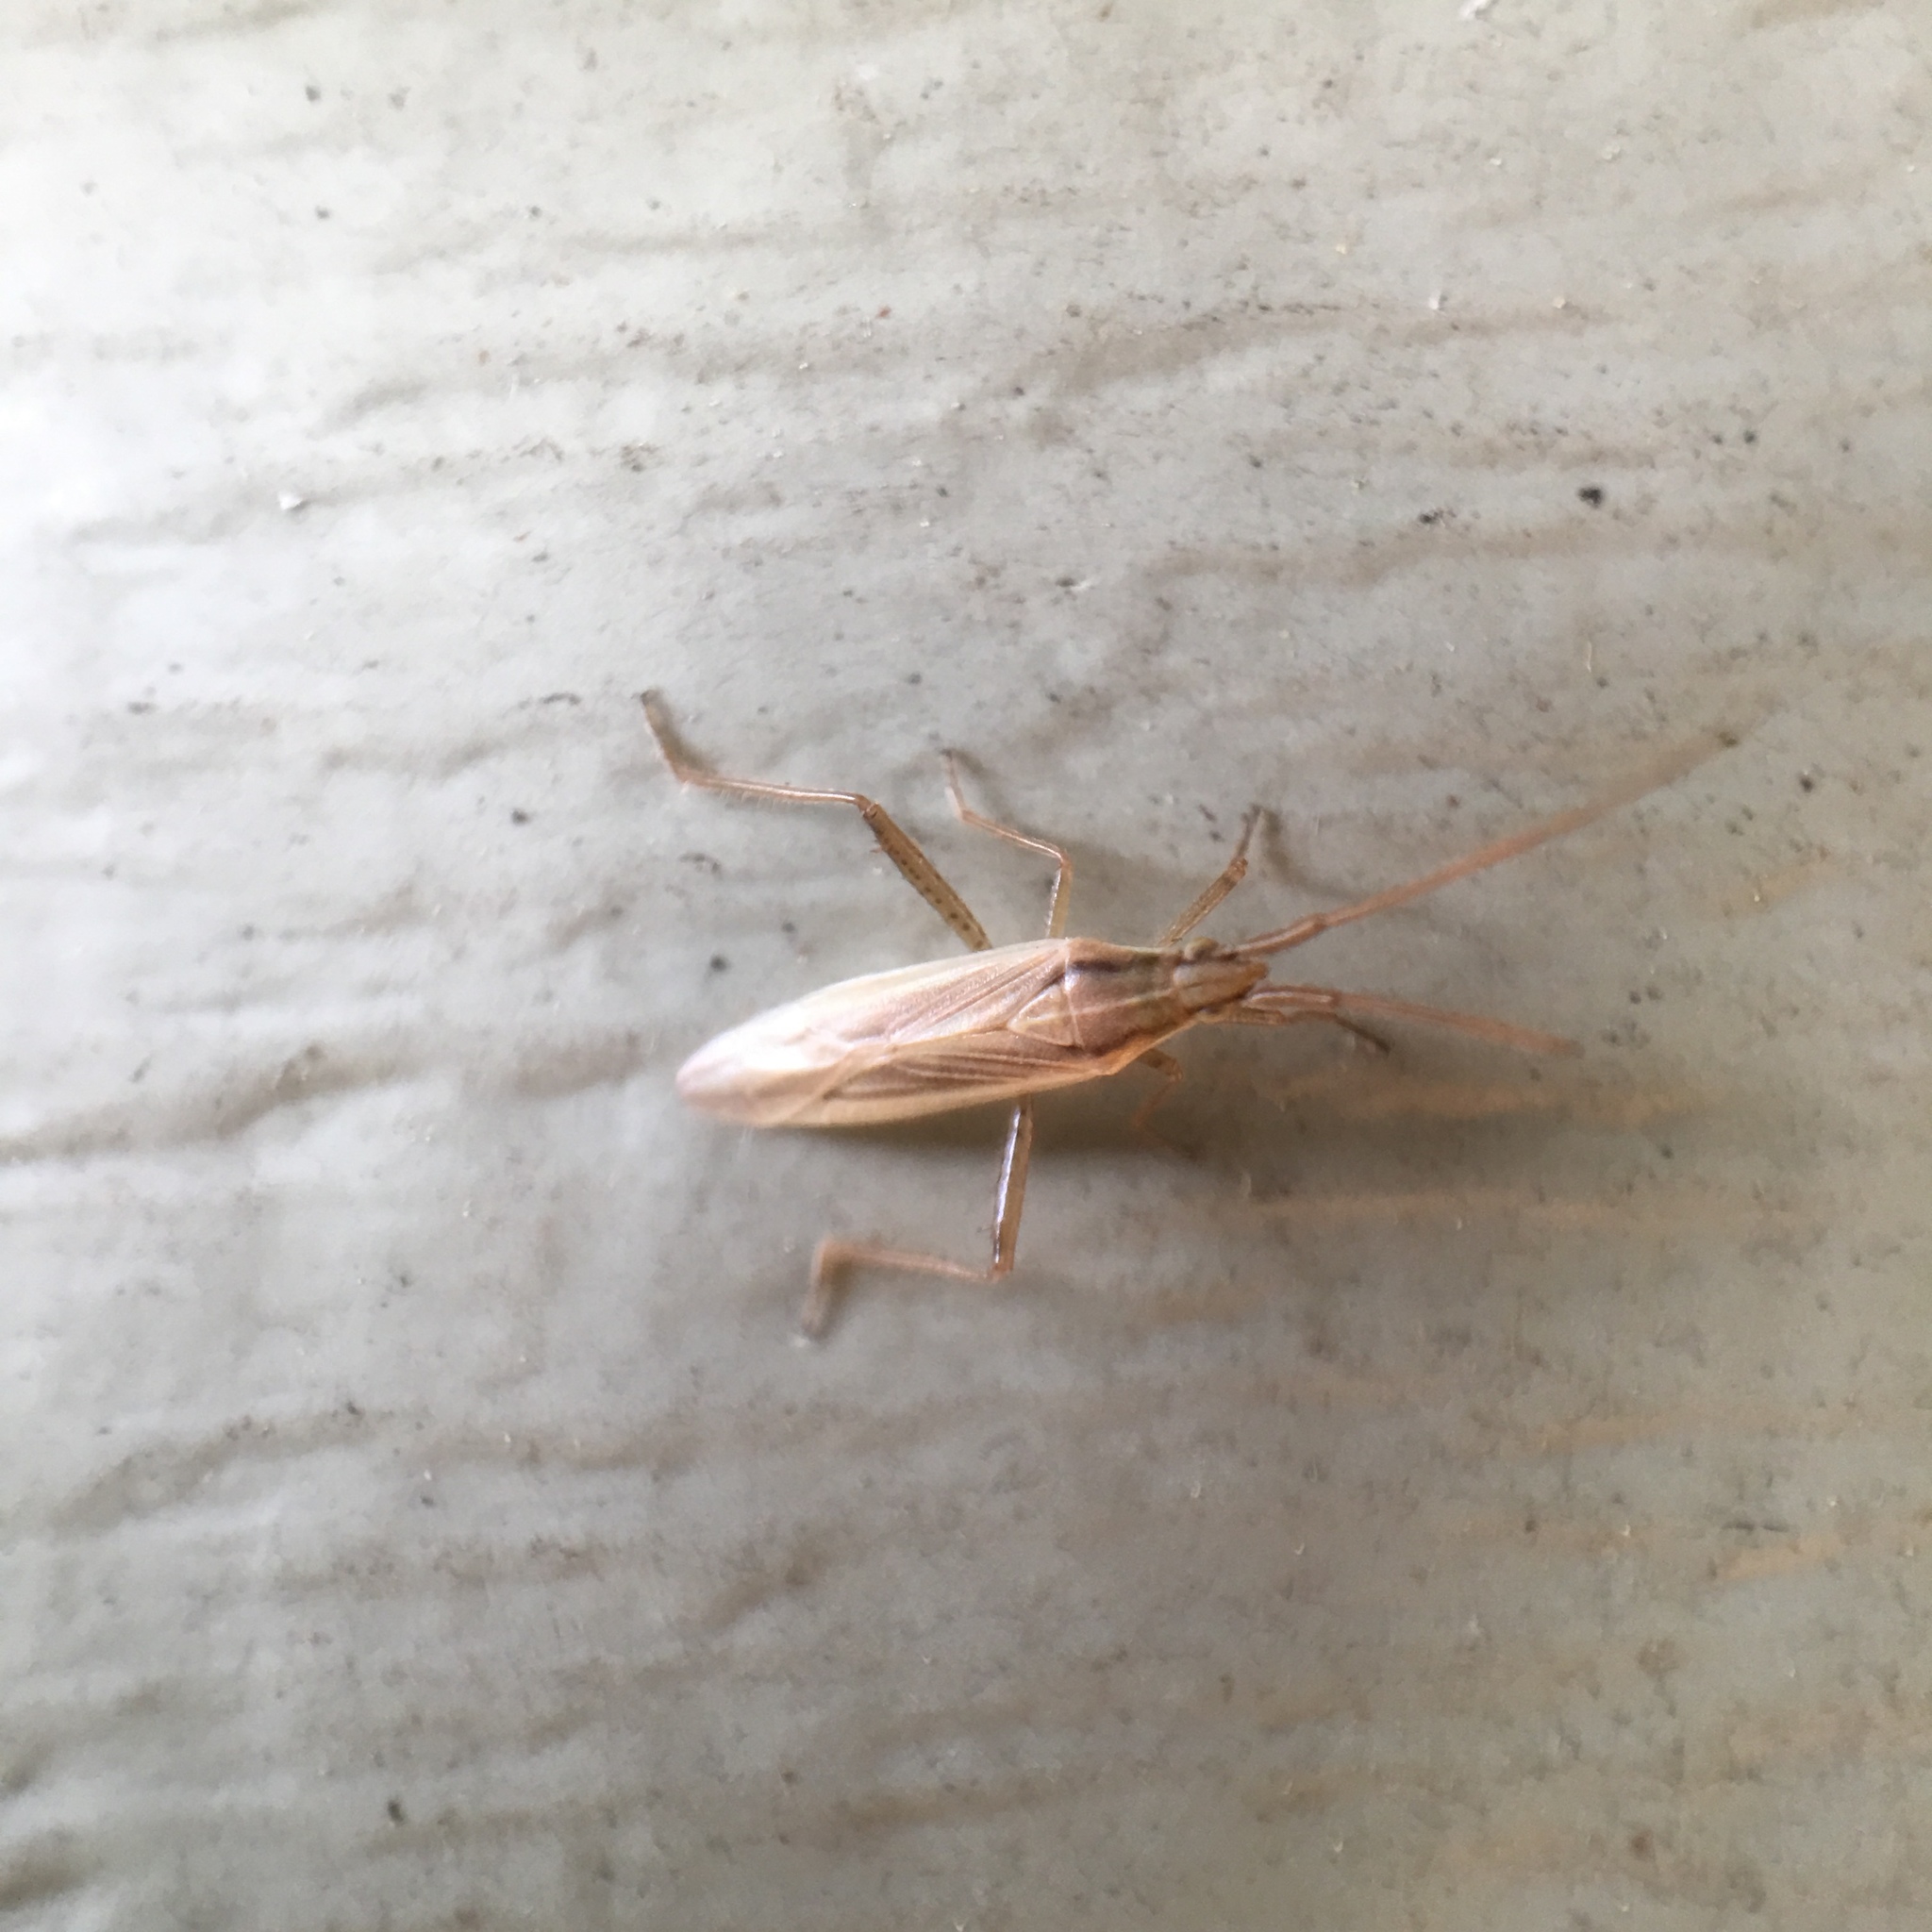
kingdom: Animalia
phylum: Arthropoda
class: Insecta
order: Hemiptera
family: Miridae
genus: Stenodema
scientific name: Stenodema trispinosa
